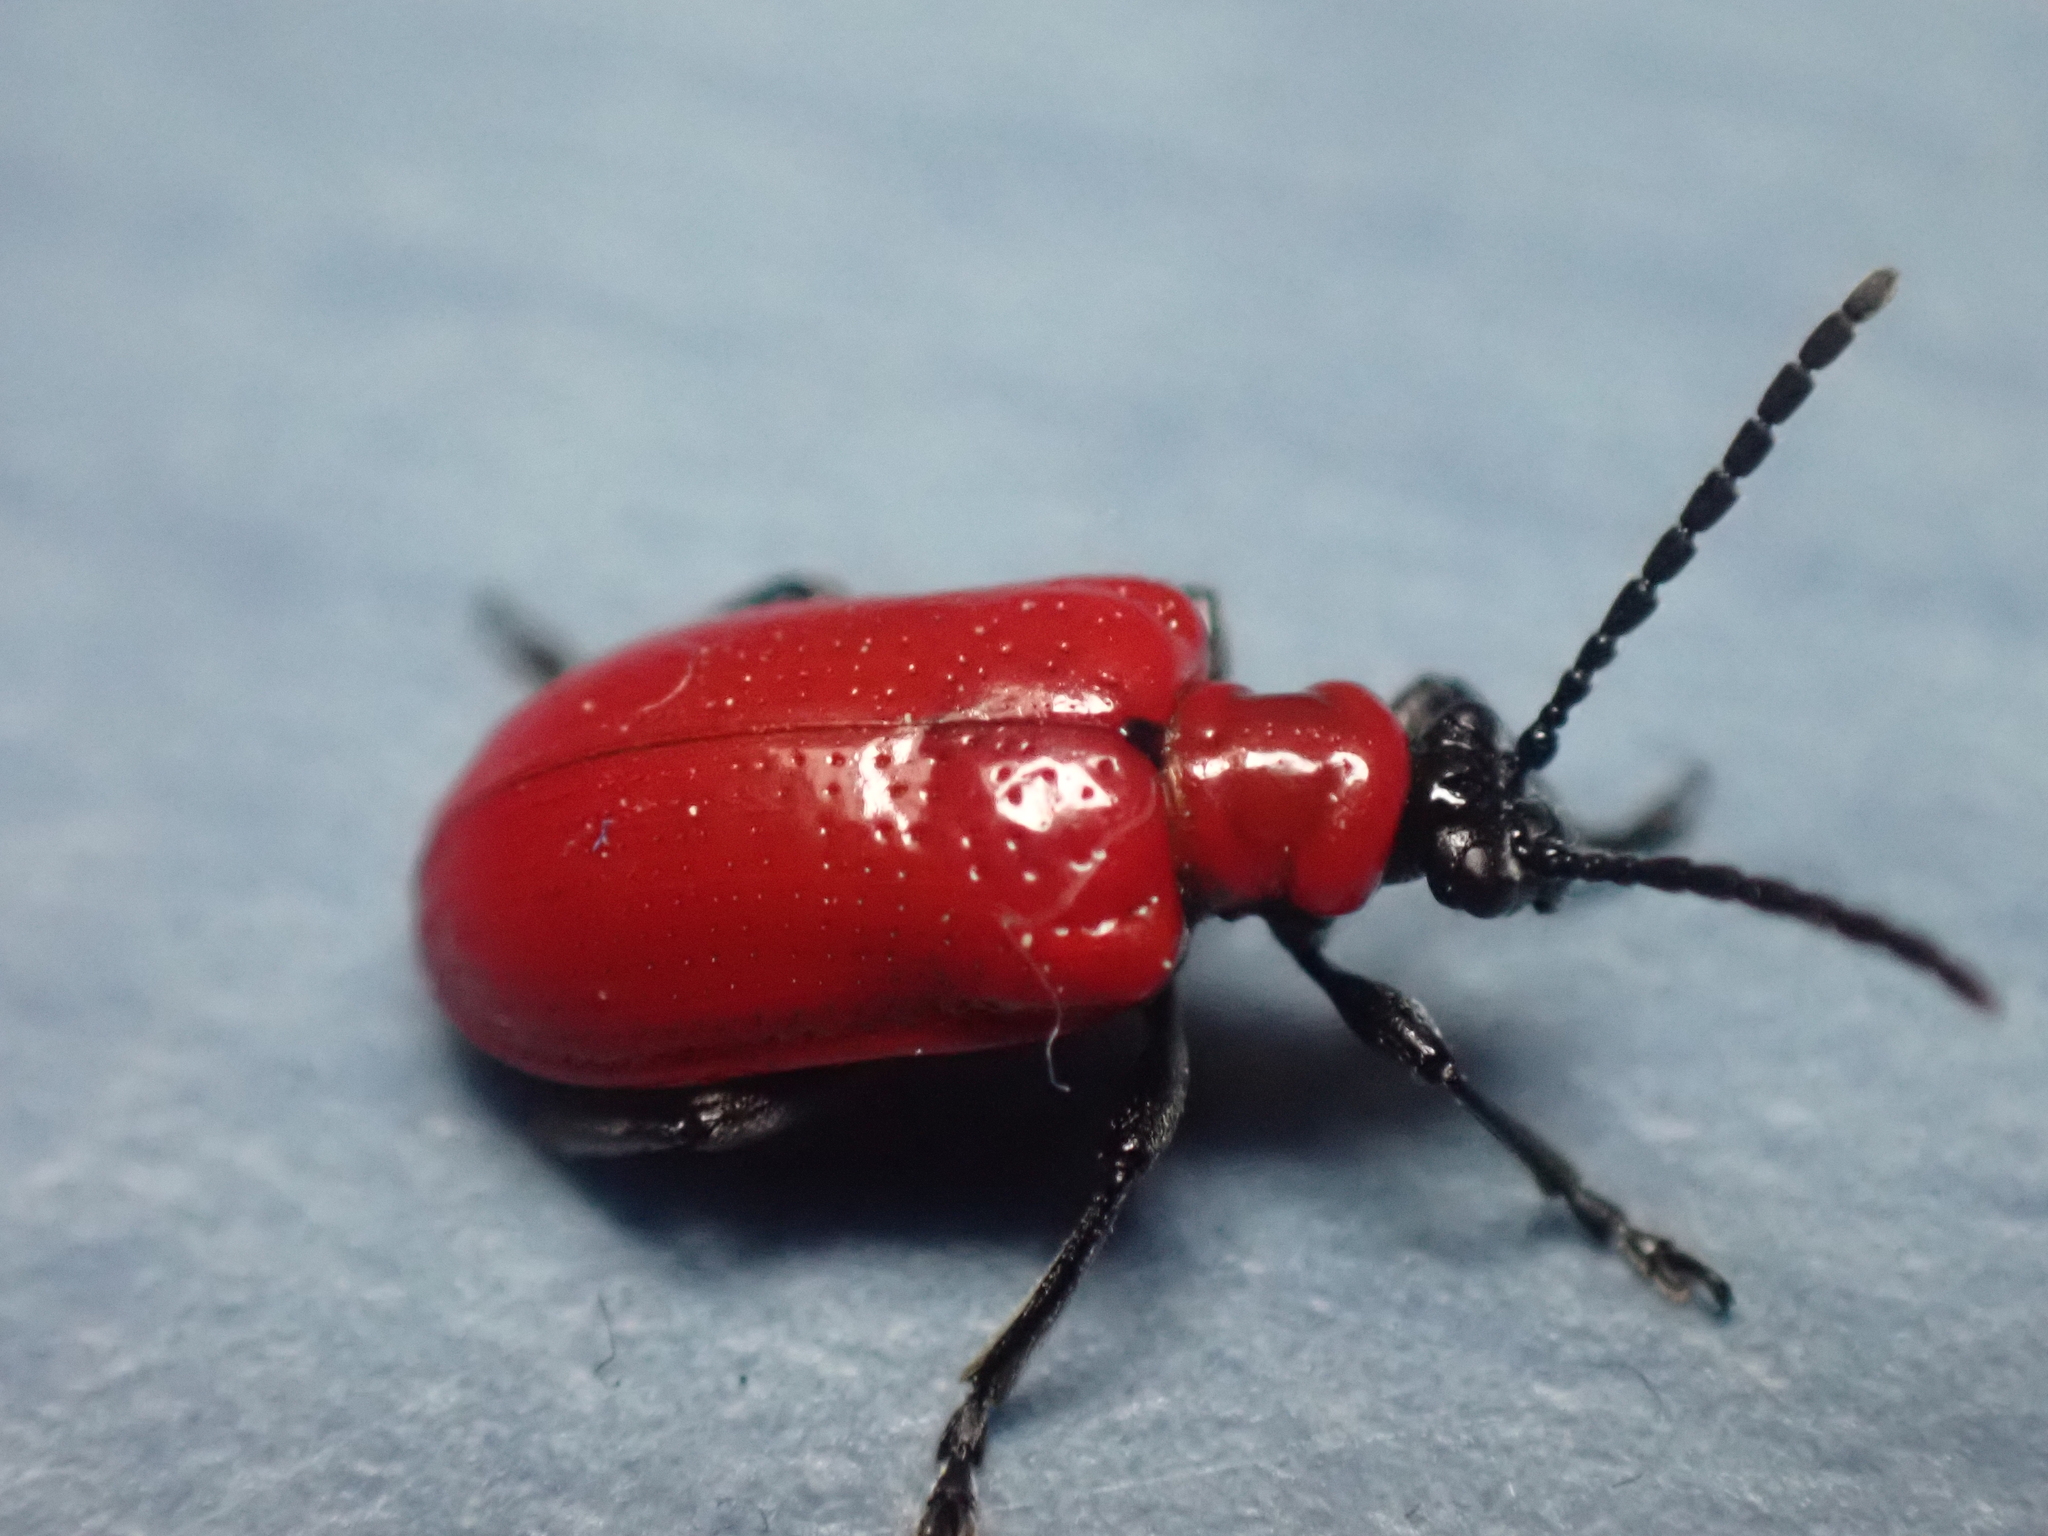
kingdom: Animalia
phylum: Arthropoda
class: Insecta
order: Coleoptera
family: Chrysomelidae
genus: Lilioceris
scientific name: Lilioceris lilii
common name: Lily beetle
